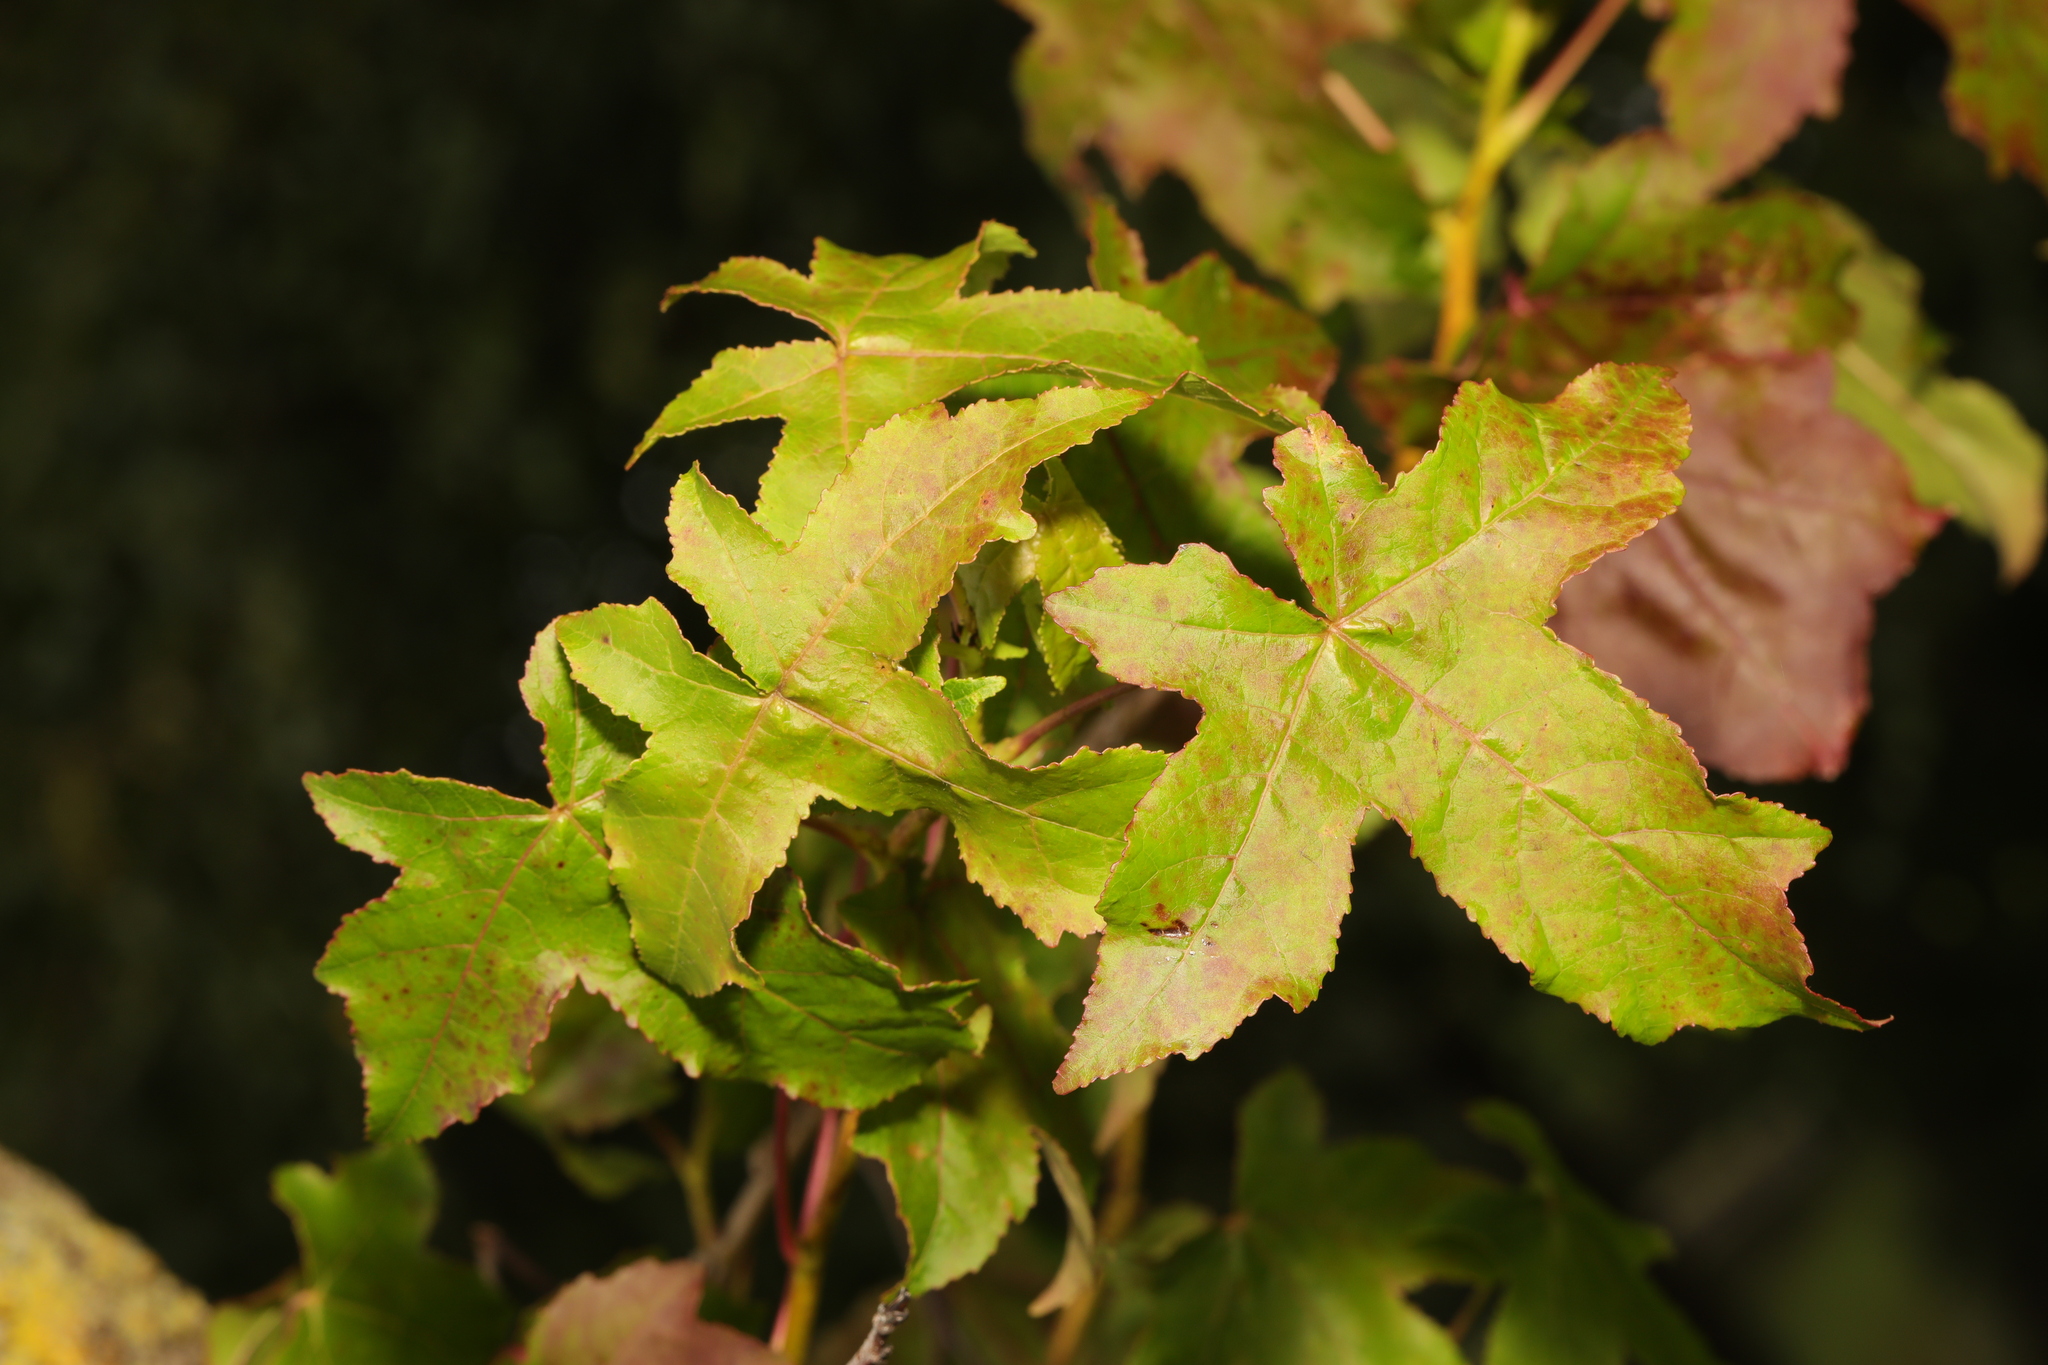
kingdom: Plantae
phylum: Tracheophyta
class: Magnoliopsida
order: Saxifragales
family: Altingiaceae
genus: Liquidambar
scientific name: Liquidambar styraciflua
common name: Sweet gum
